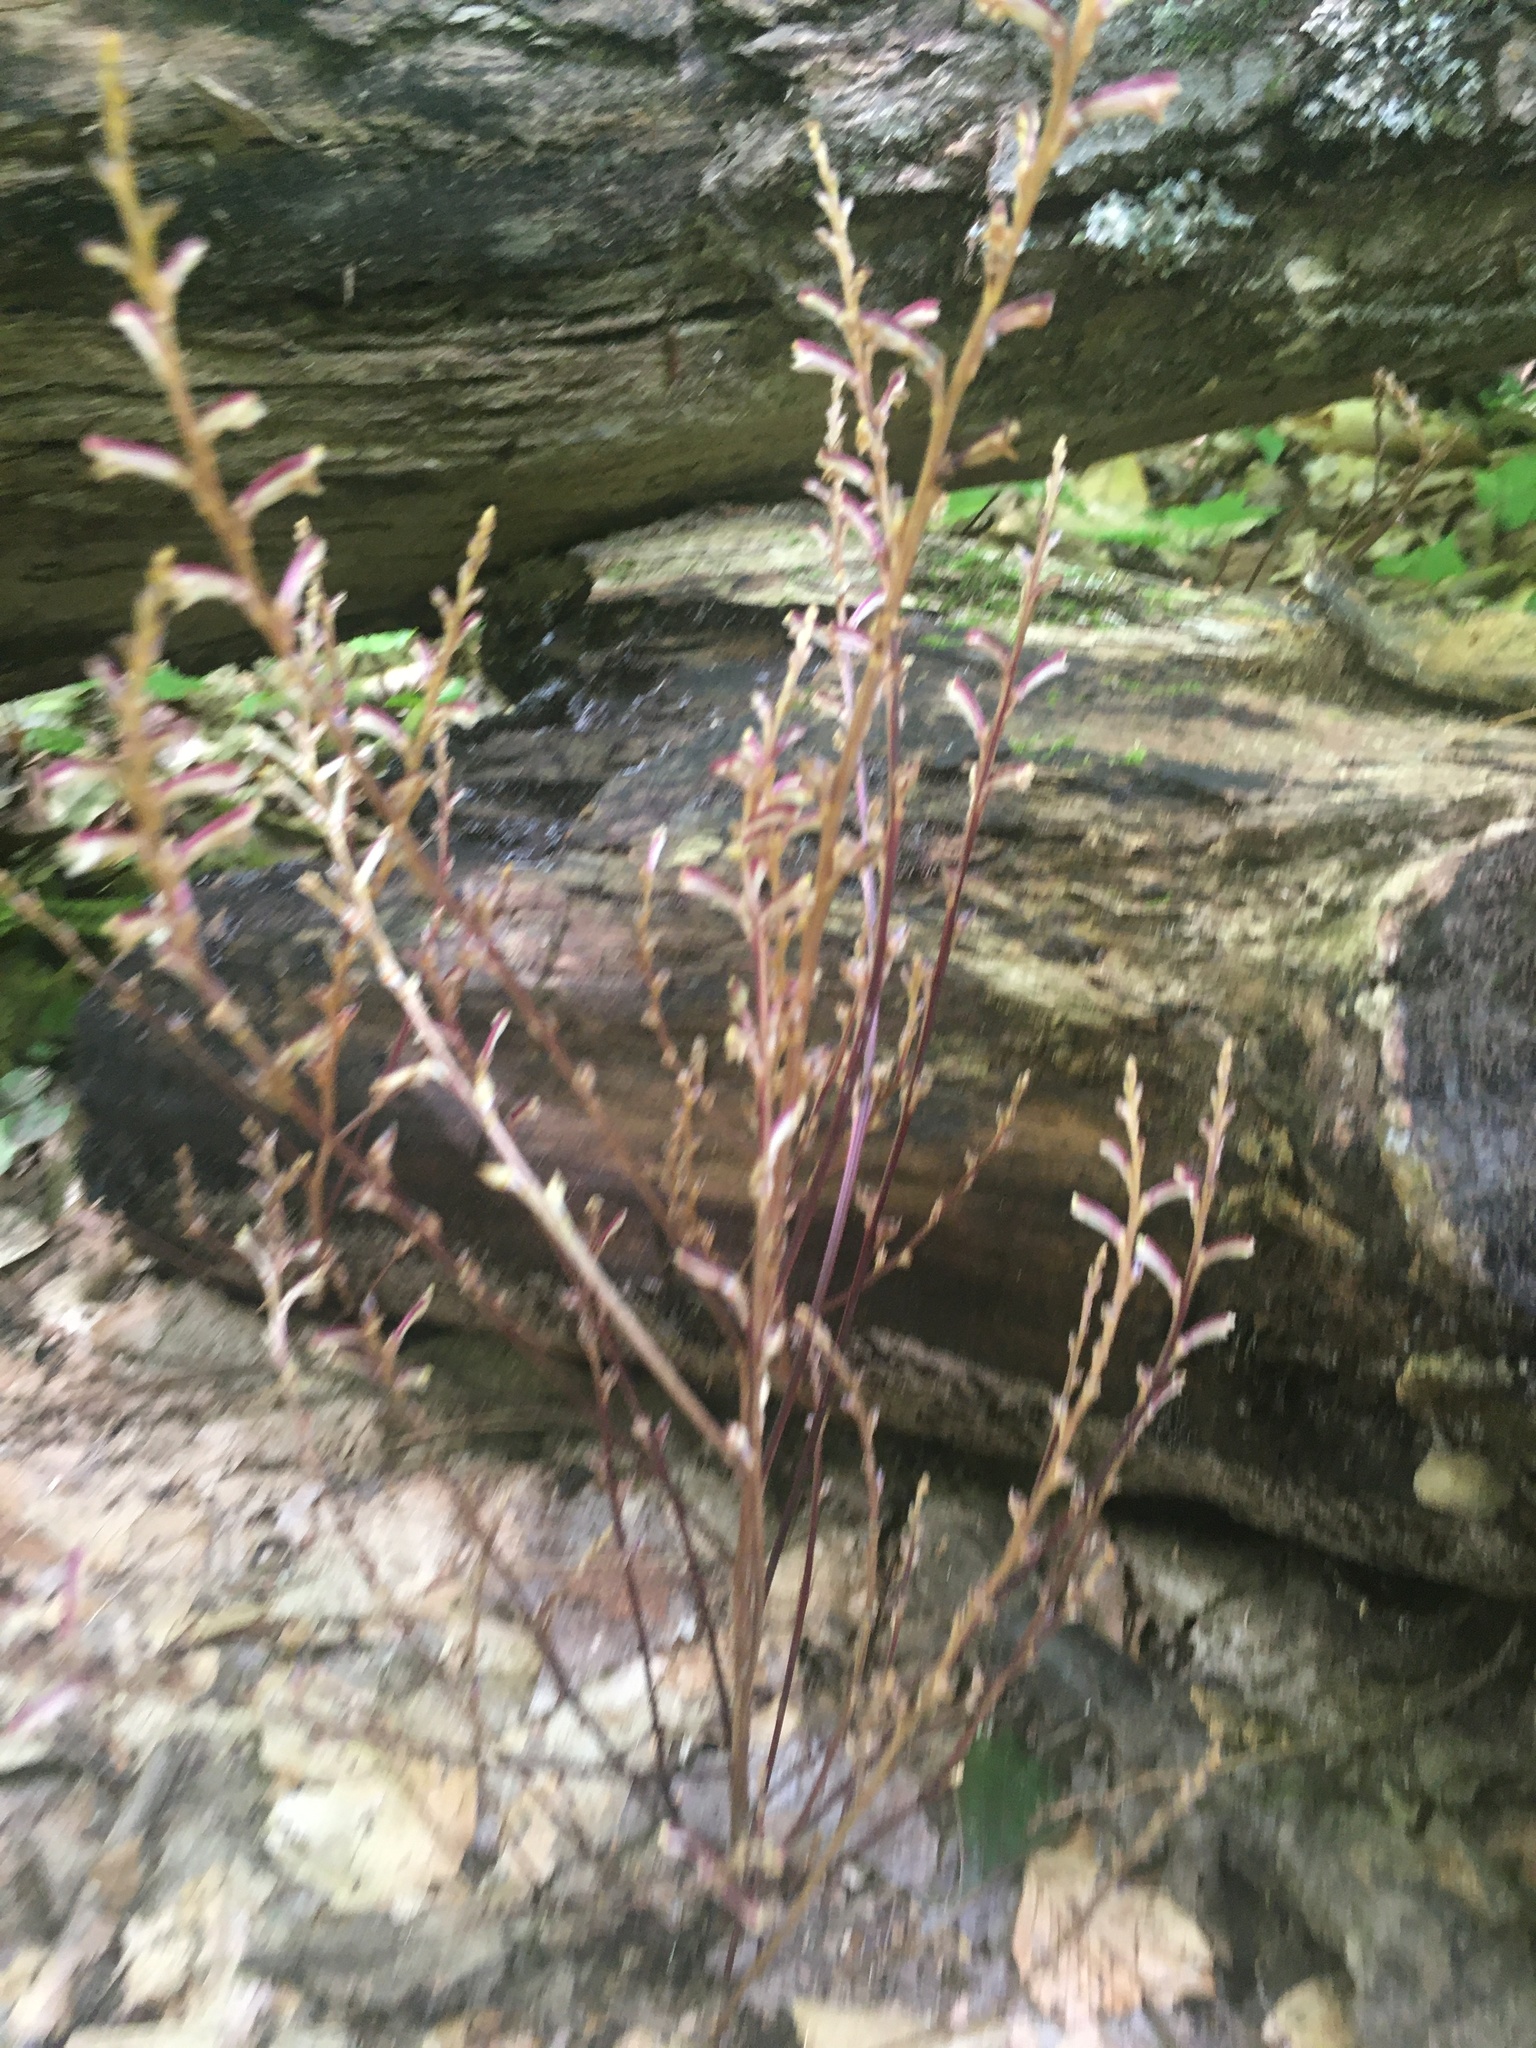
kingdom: Plantae
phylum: Tracheophyta
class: Magnoliopsida
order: Lamiales
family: Orobanchaceae
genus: Epifagus
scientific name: Epifagus virginiana
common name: Beechdrops
